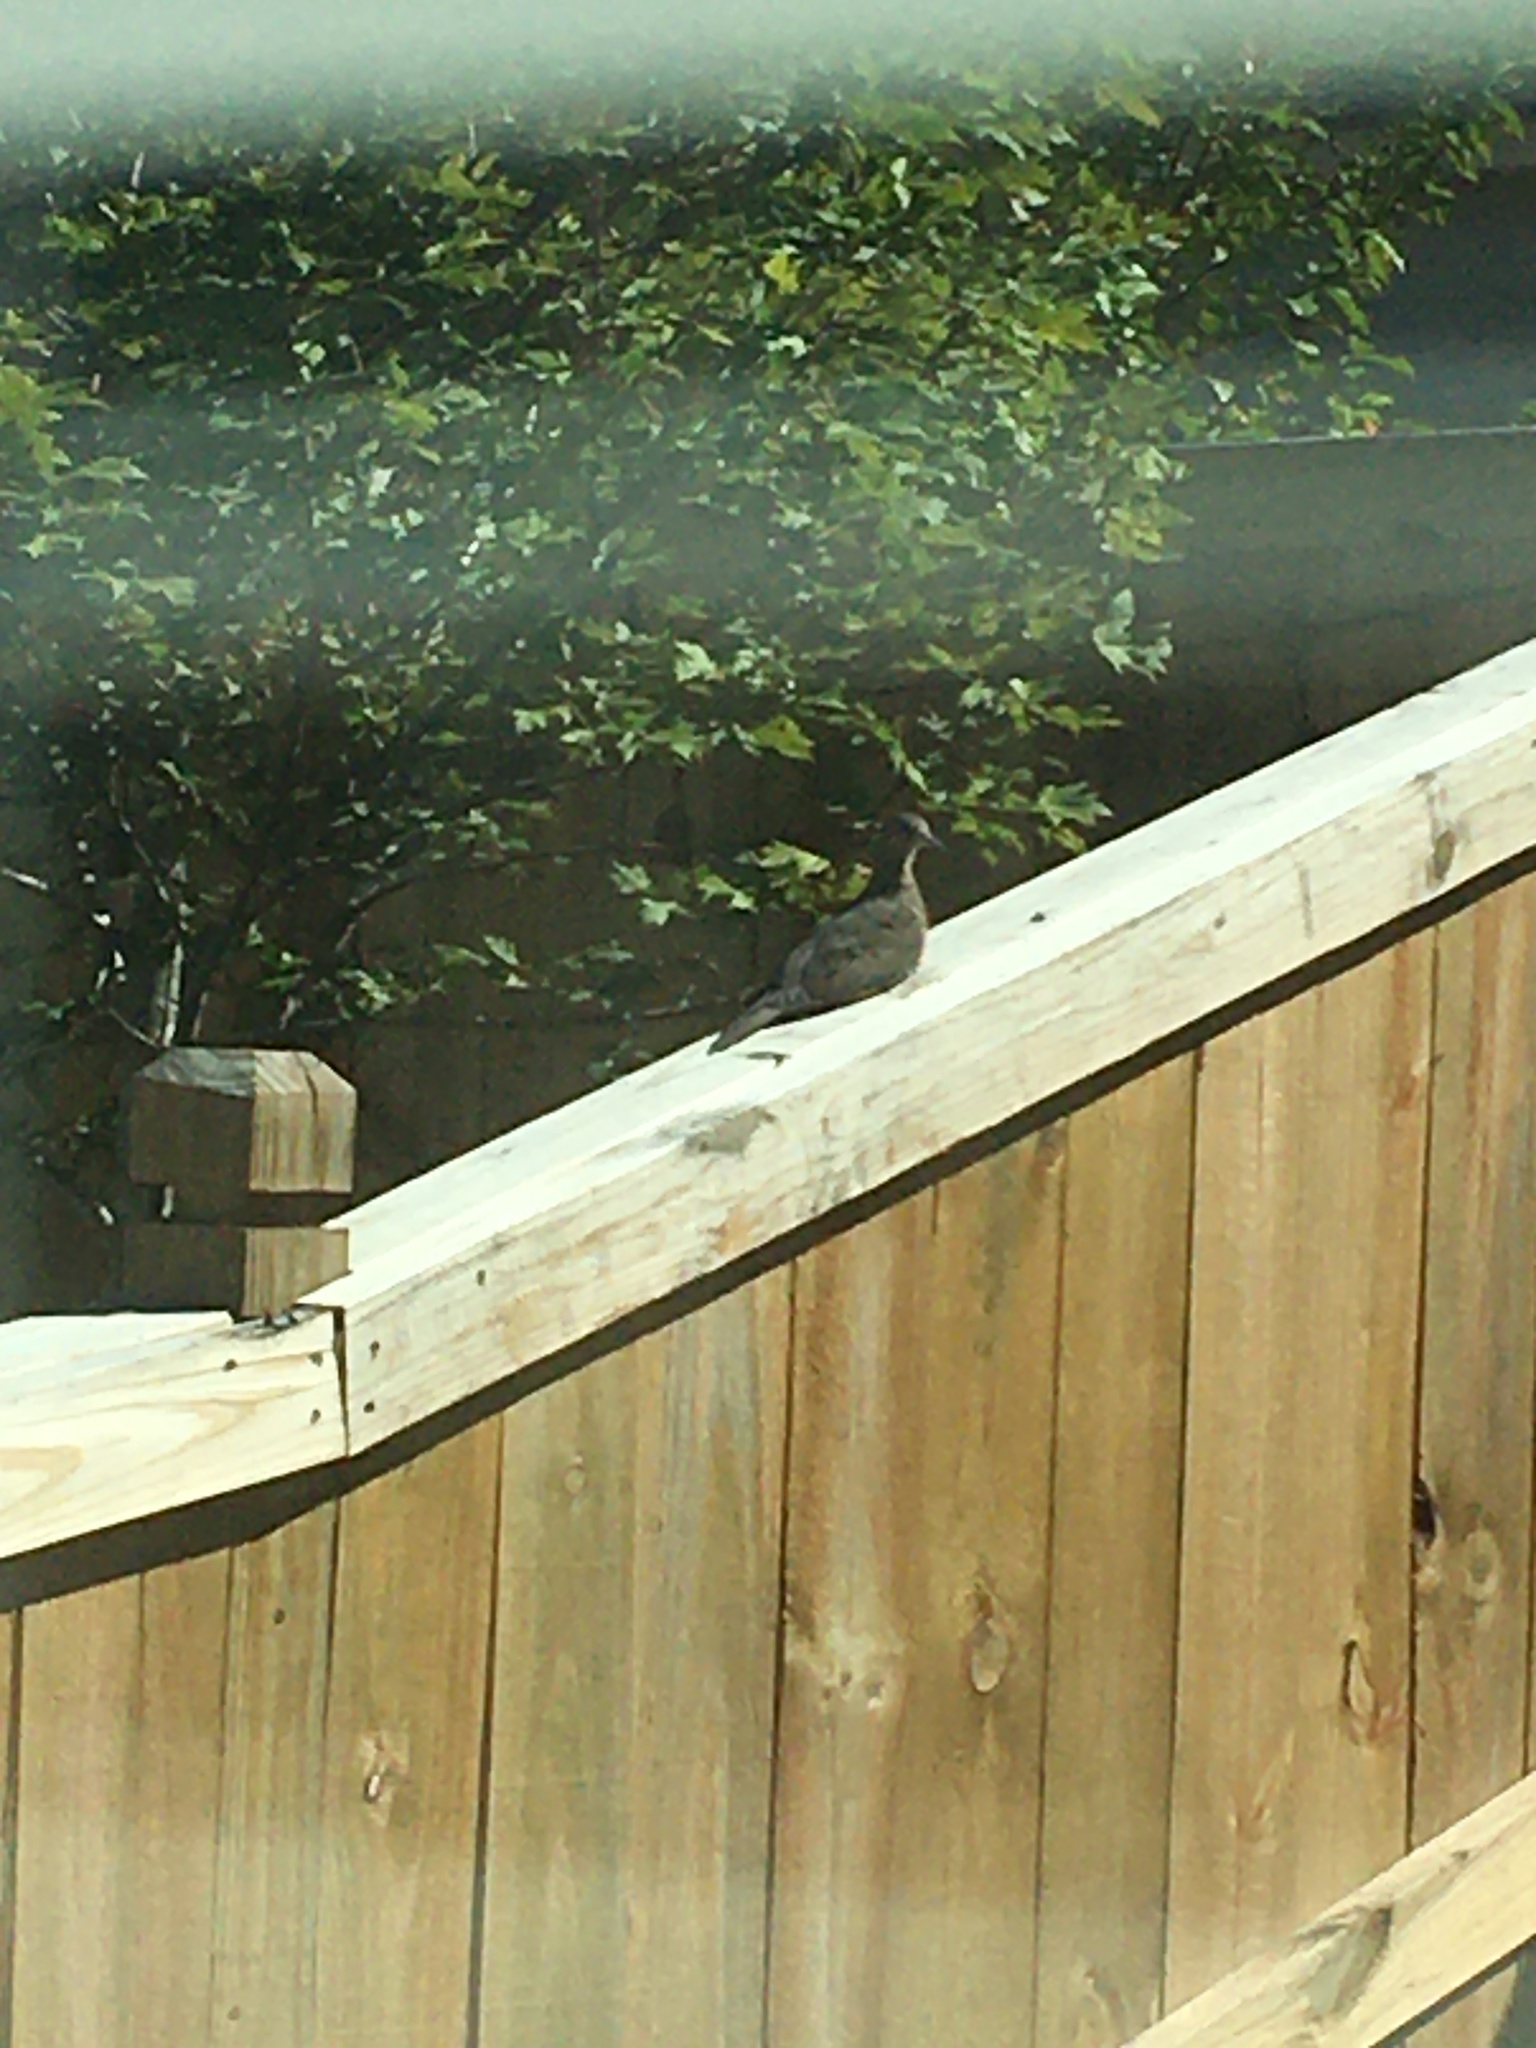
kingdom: Animalia
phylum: Chordata
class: Aves
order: Columbiformes
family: Columbidae
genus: Zenaida
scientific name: Zenaida macroura
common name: Mourning dove
